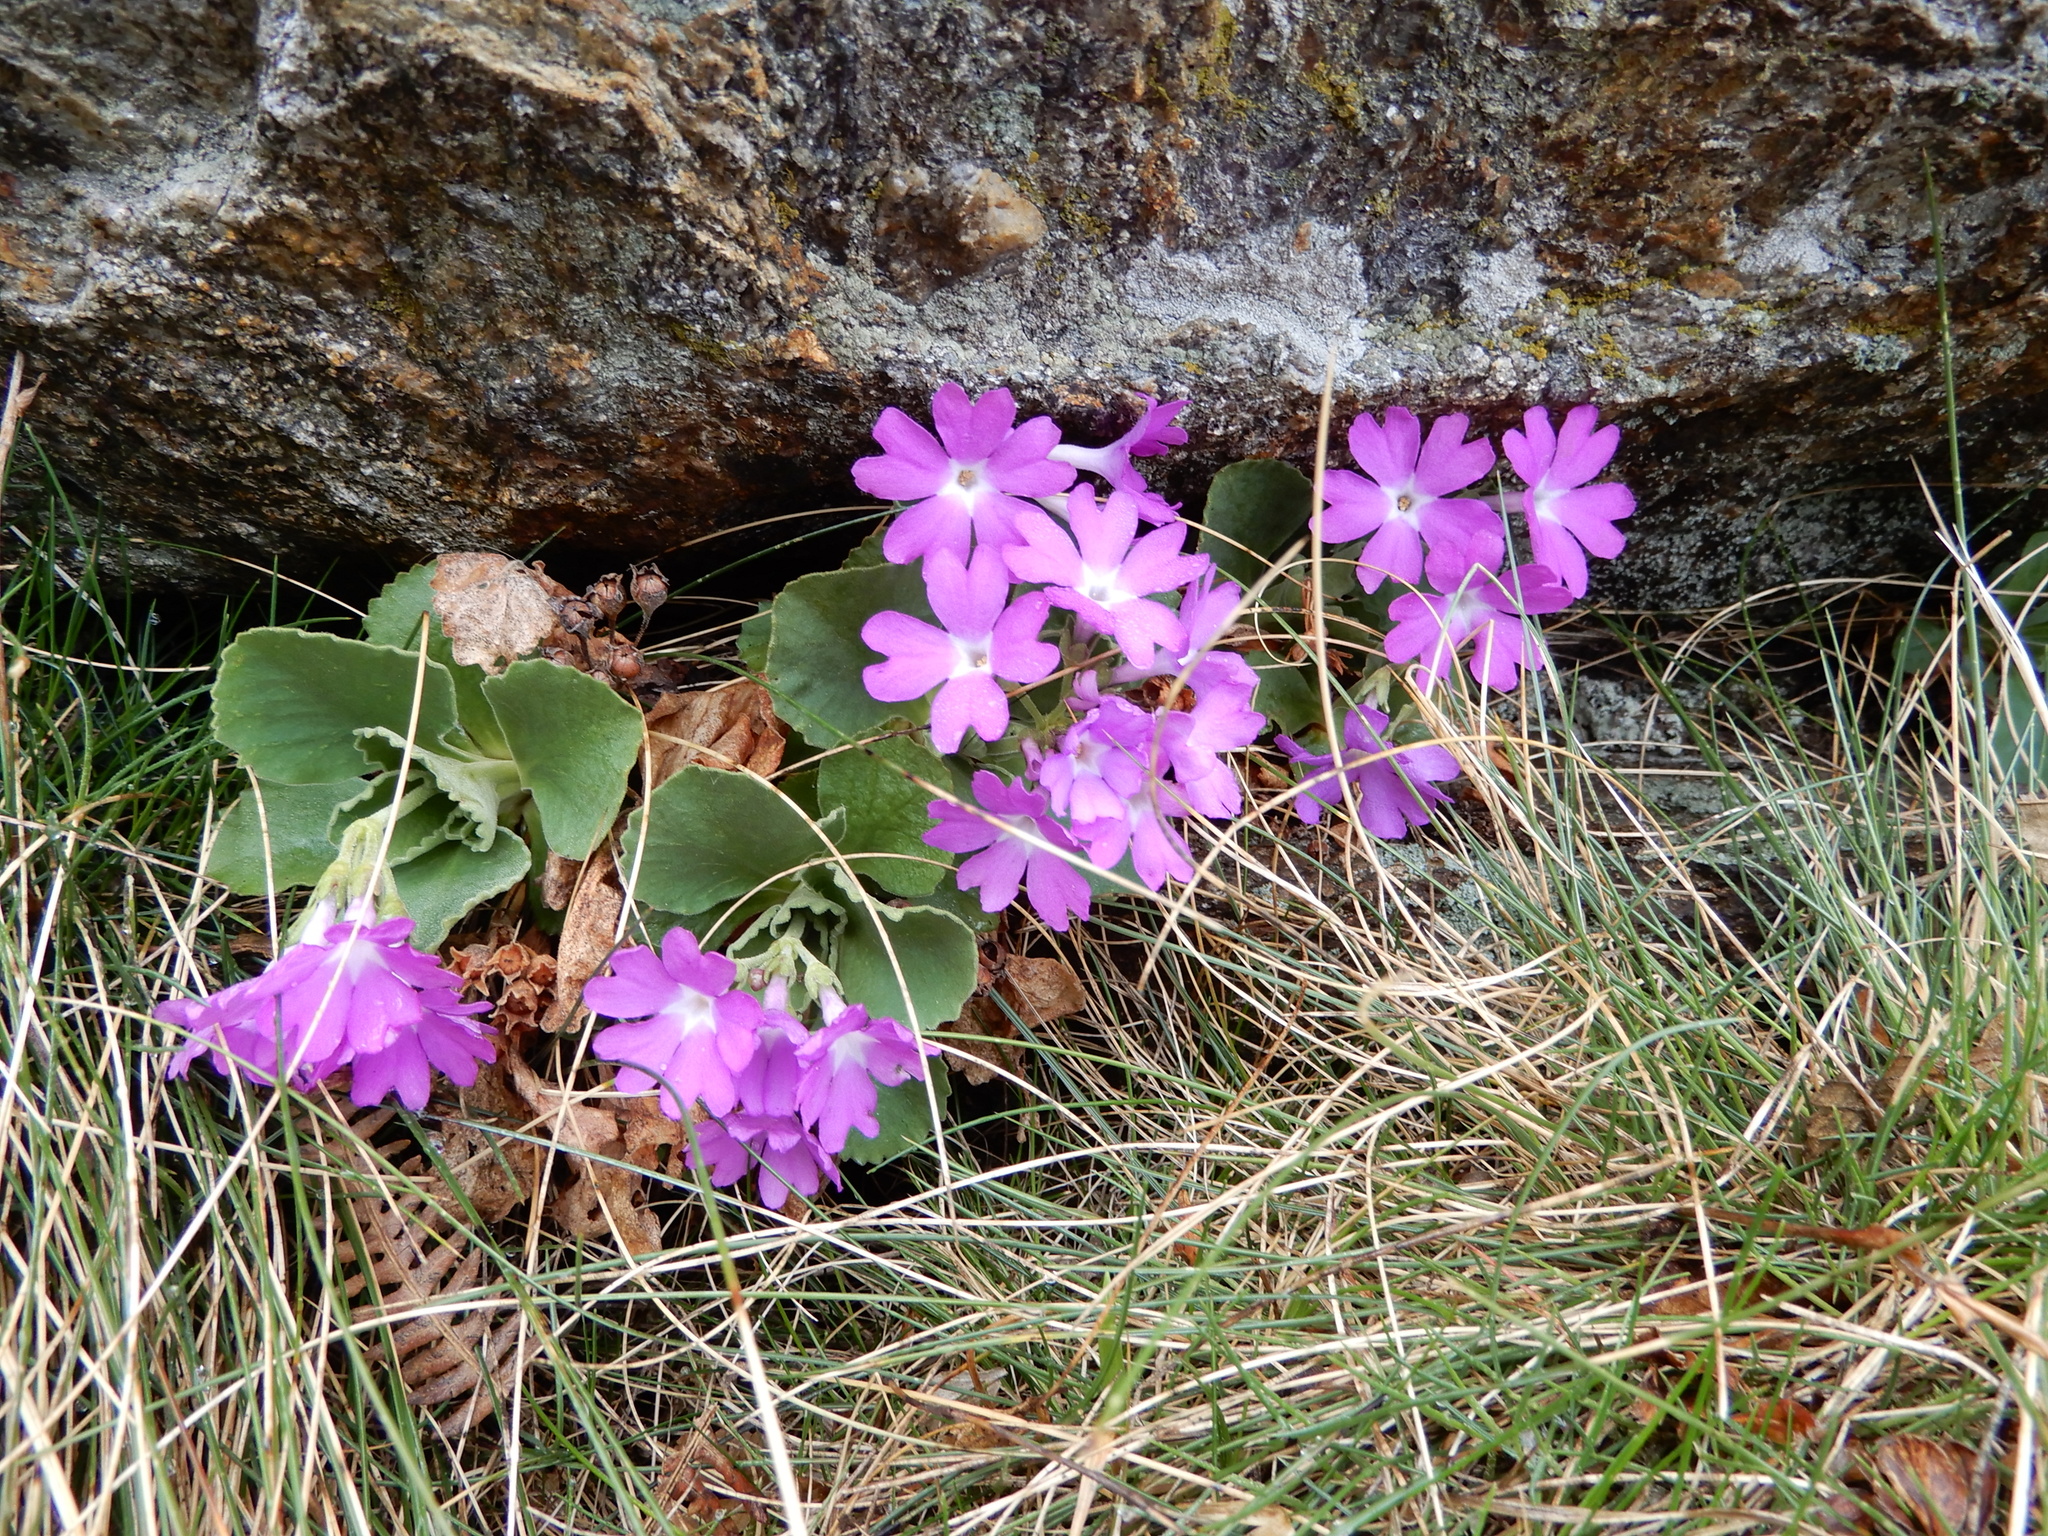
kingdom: Plantae
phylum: Tracheophyta
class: Magnoliopsida
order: Ericales
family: Primulaceae
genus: Primula
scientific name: Primula hirsuta
